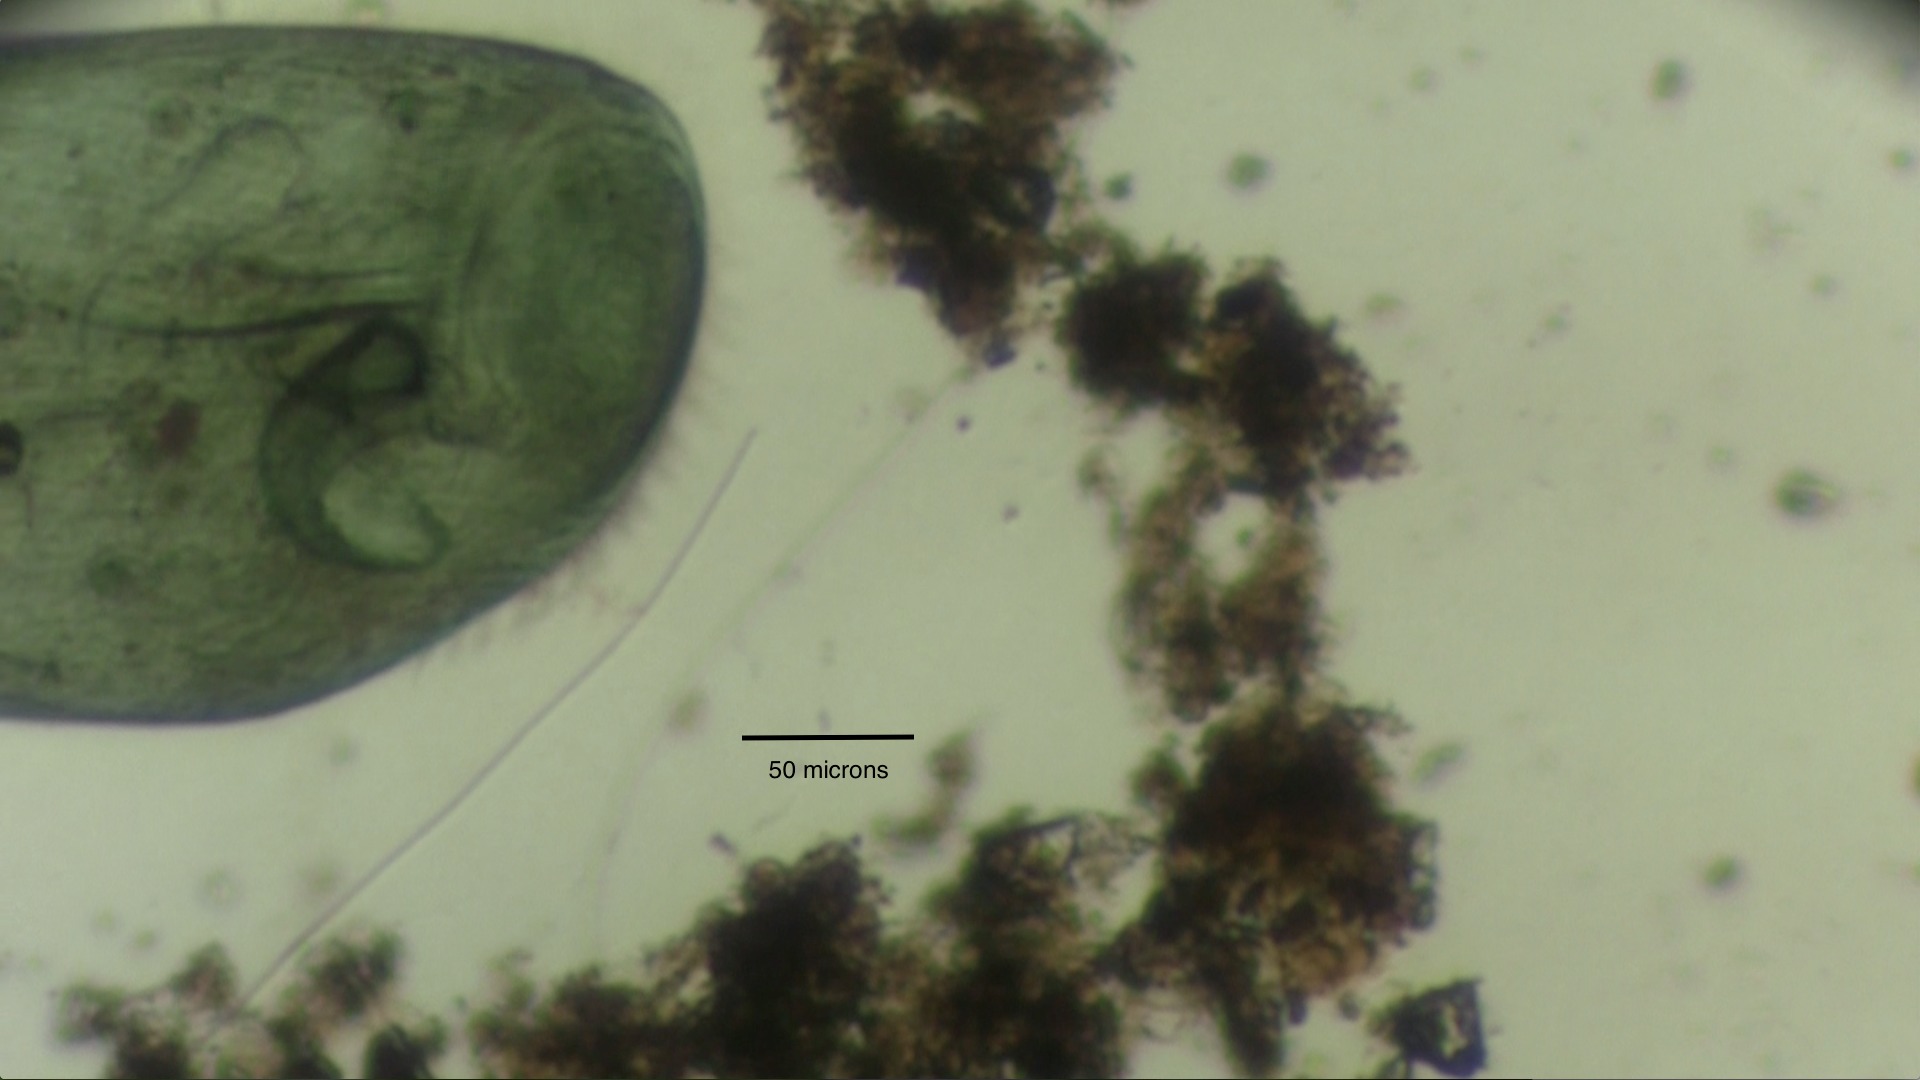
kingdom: Chromista
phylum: Ciliophora
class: Heterotrichea
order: Heterotrichida
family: Stentoridae
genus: Stentor
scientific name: Stentor coeruleus
